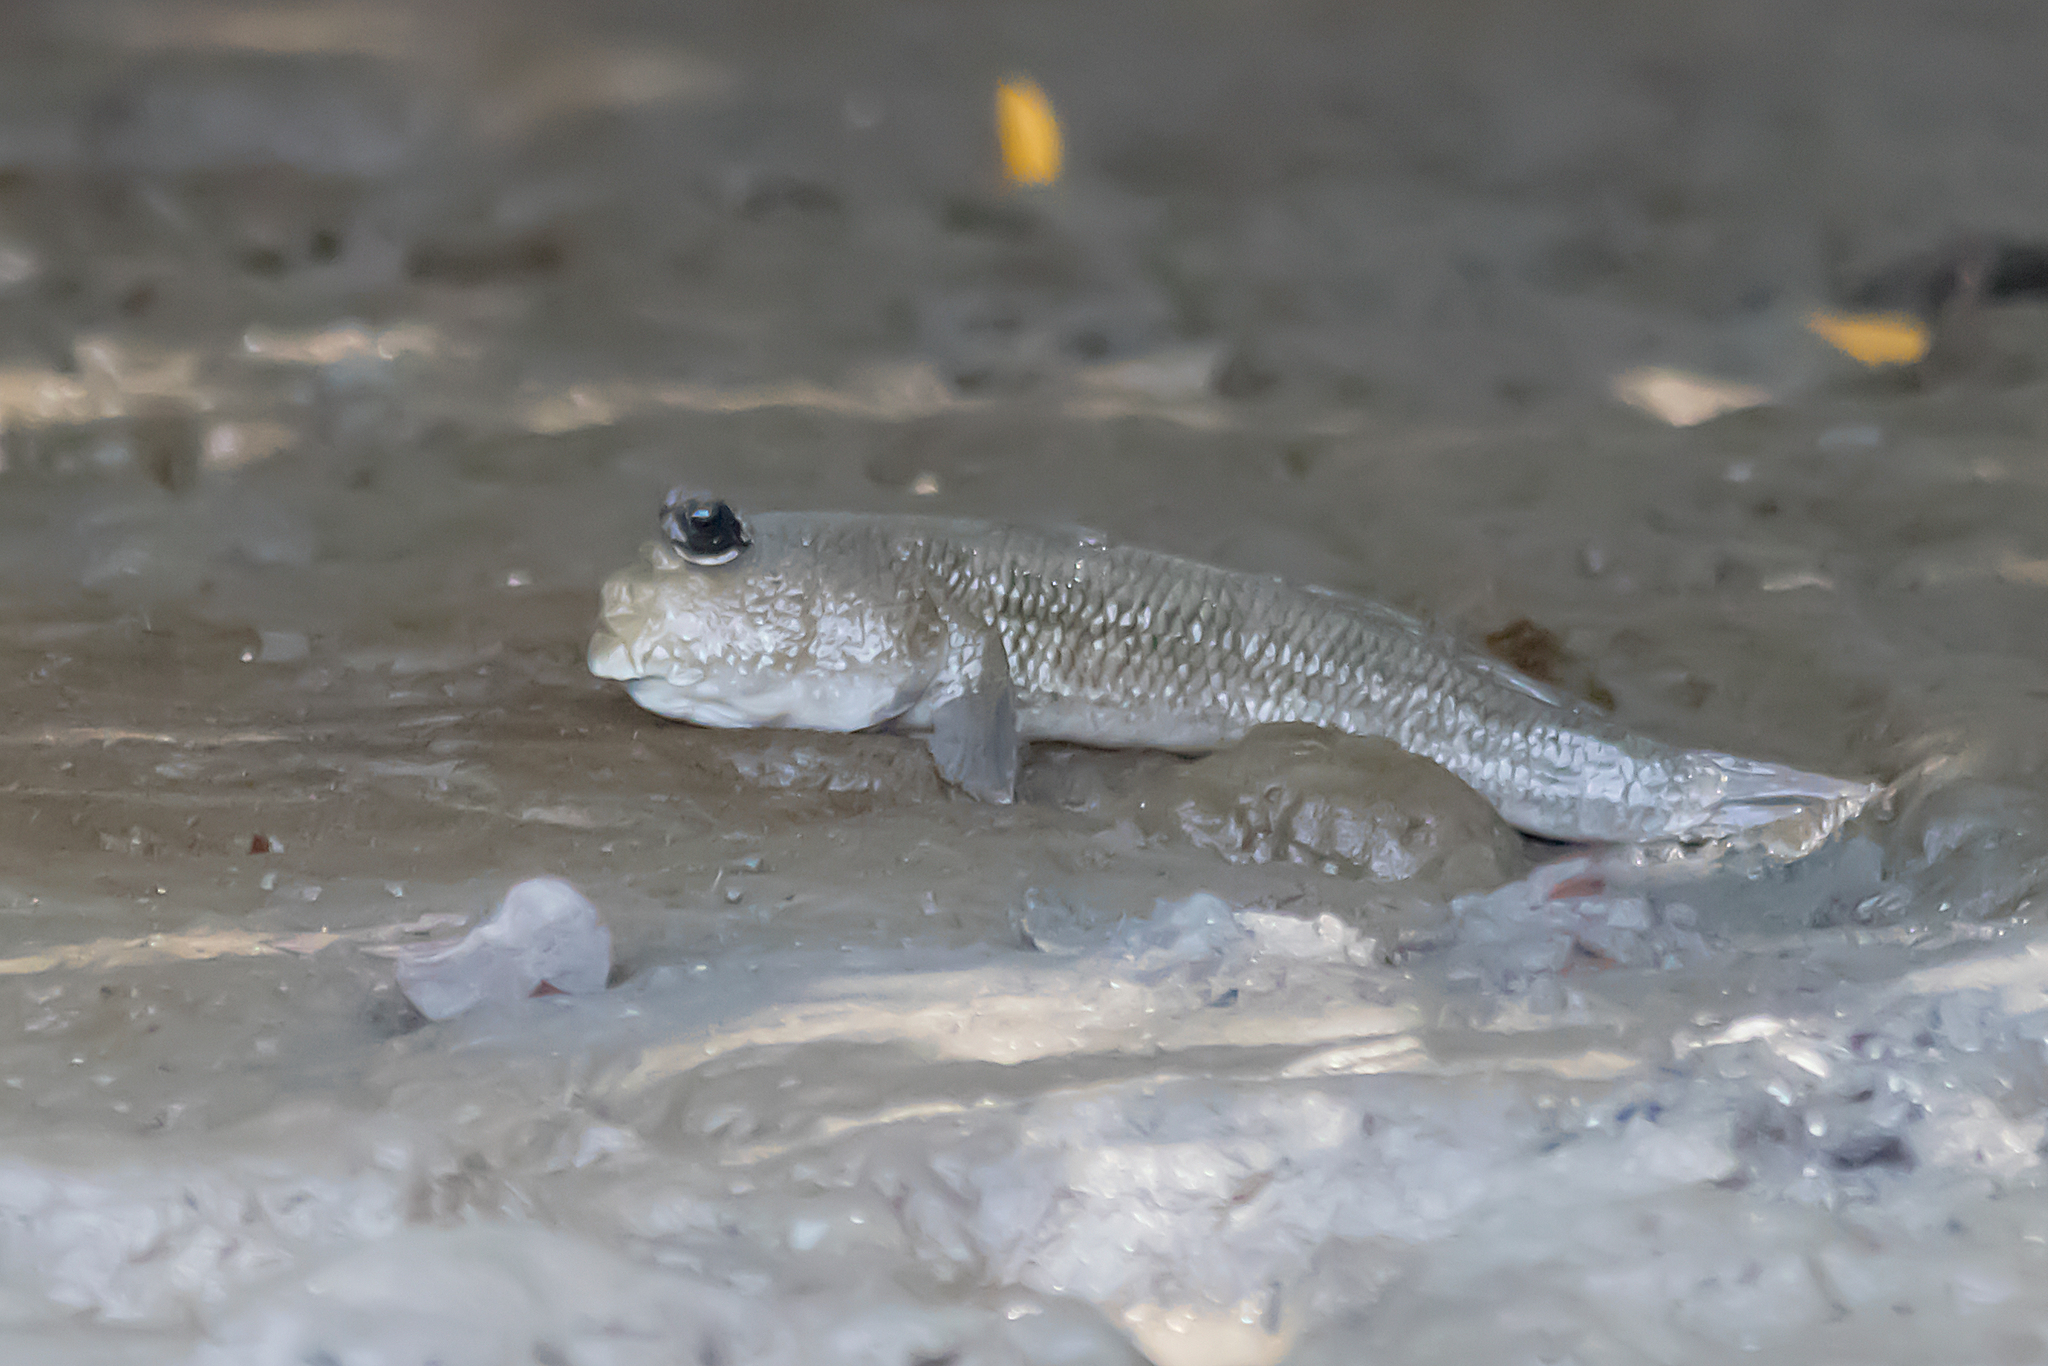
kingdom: Animalia
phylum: Chordata
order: Perciformes
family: Gobiidae
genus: Periophthalmodon
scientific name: Periophthalmodon freycineti
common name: Giant mudskipper
